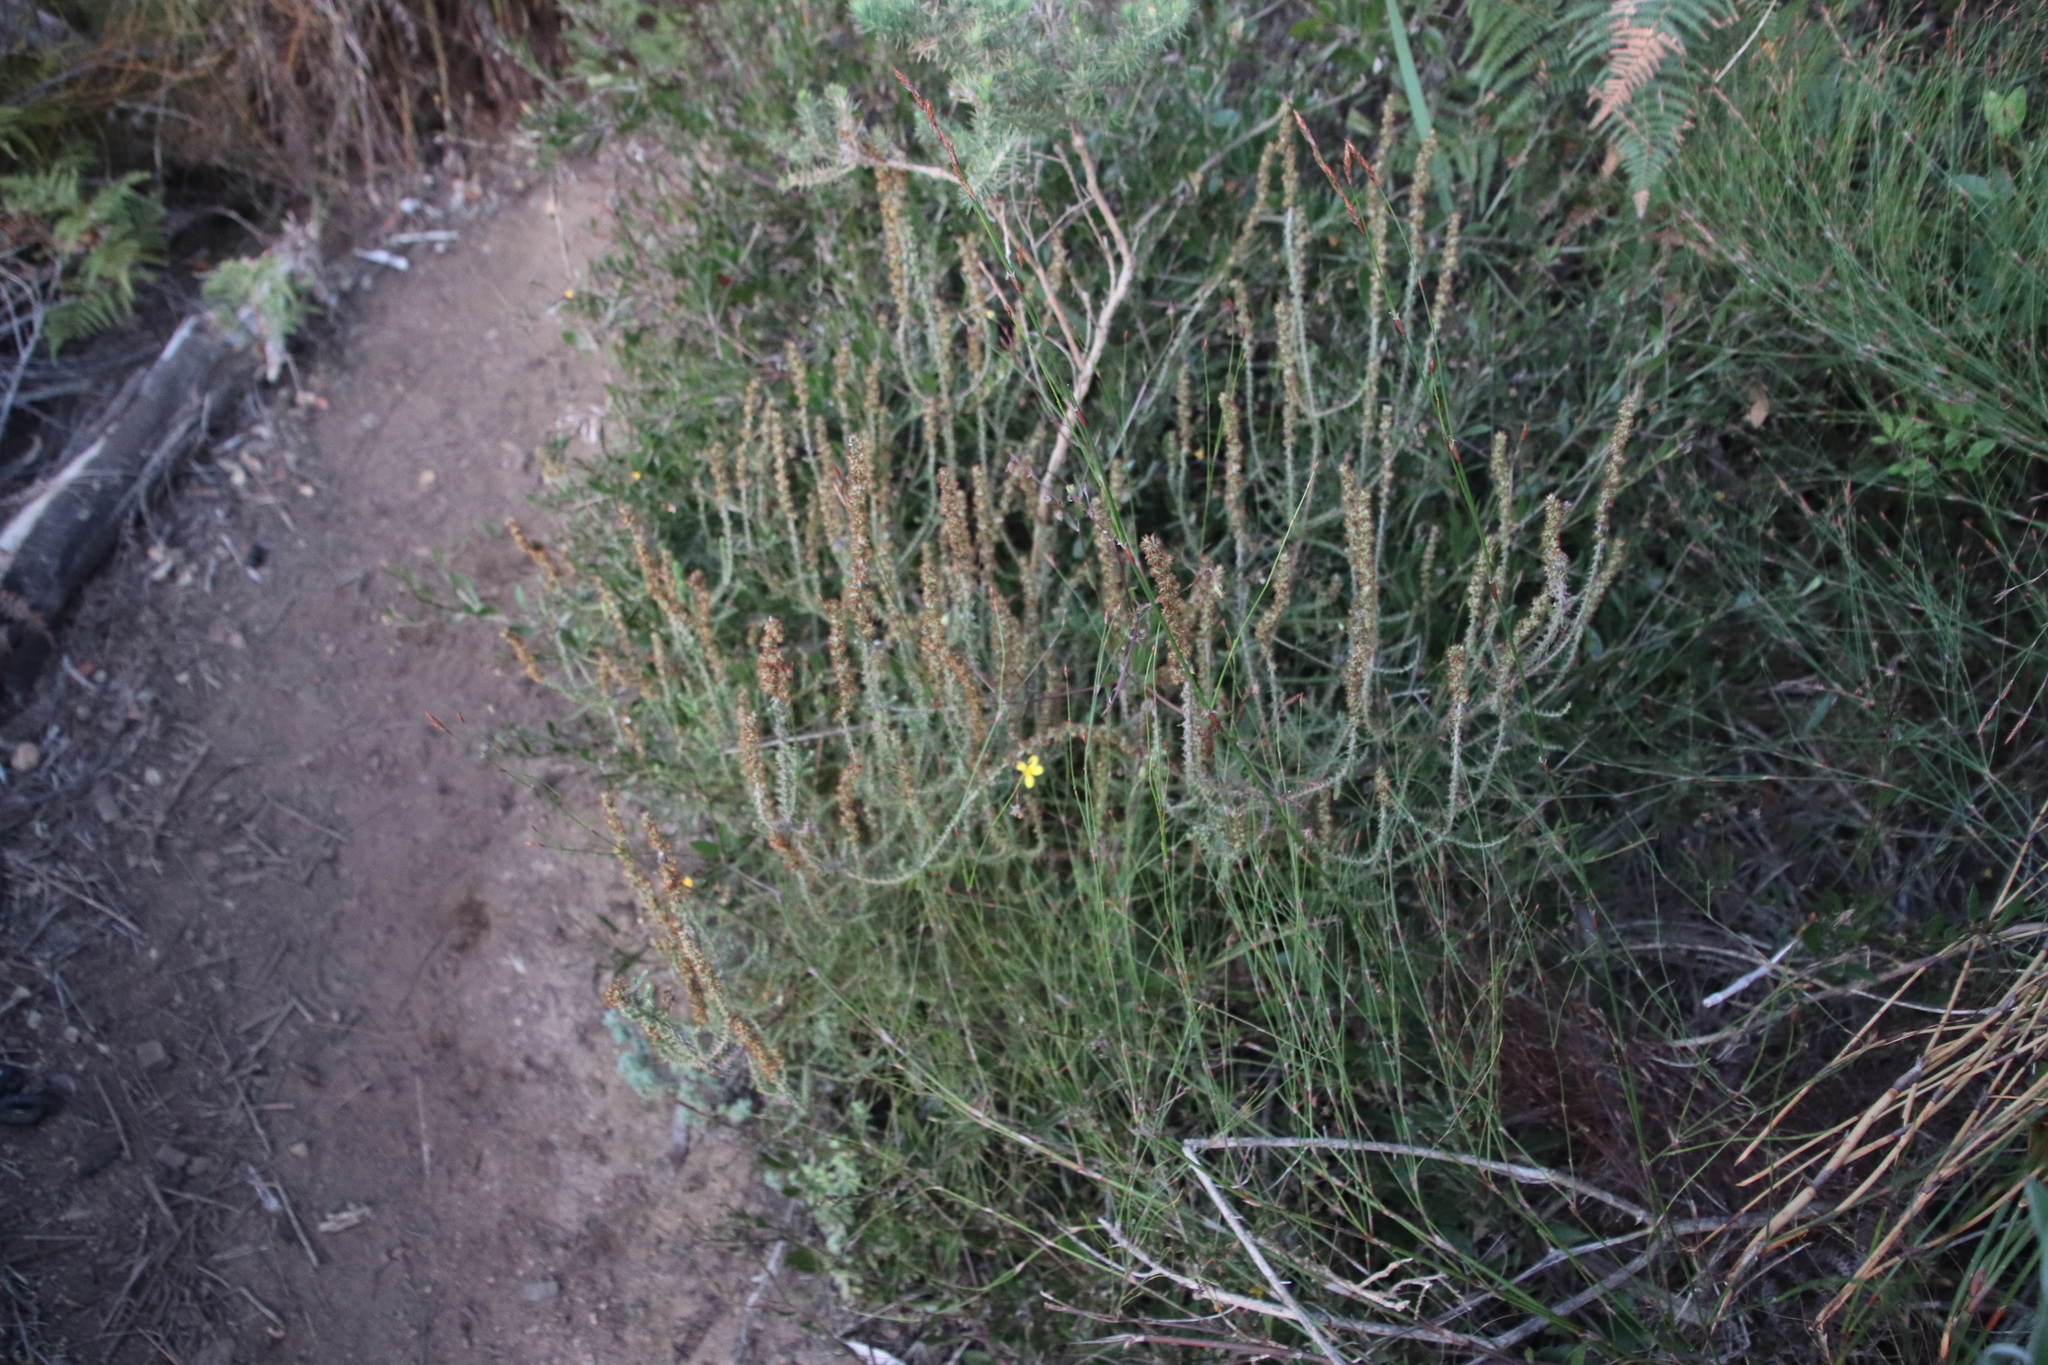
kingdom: Plantae
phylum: Tracheophyta
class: Magnoliopsida
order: Asterales
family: Asteraceae
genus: Seriphium
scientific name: Seriphium cinereum
